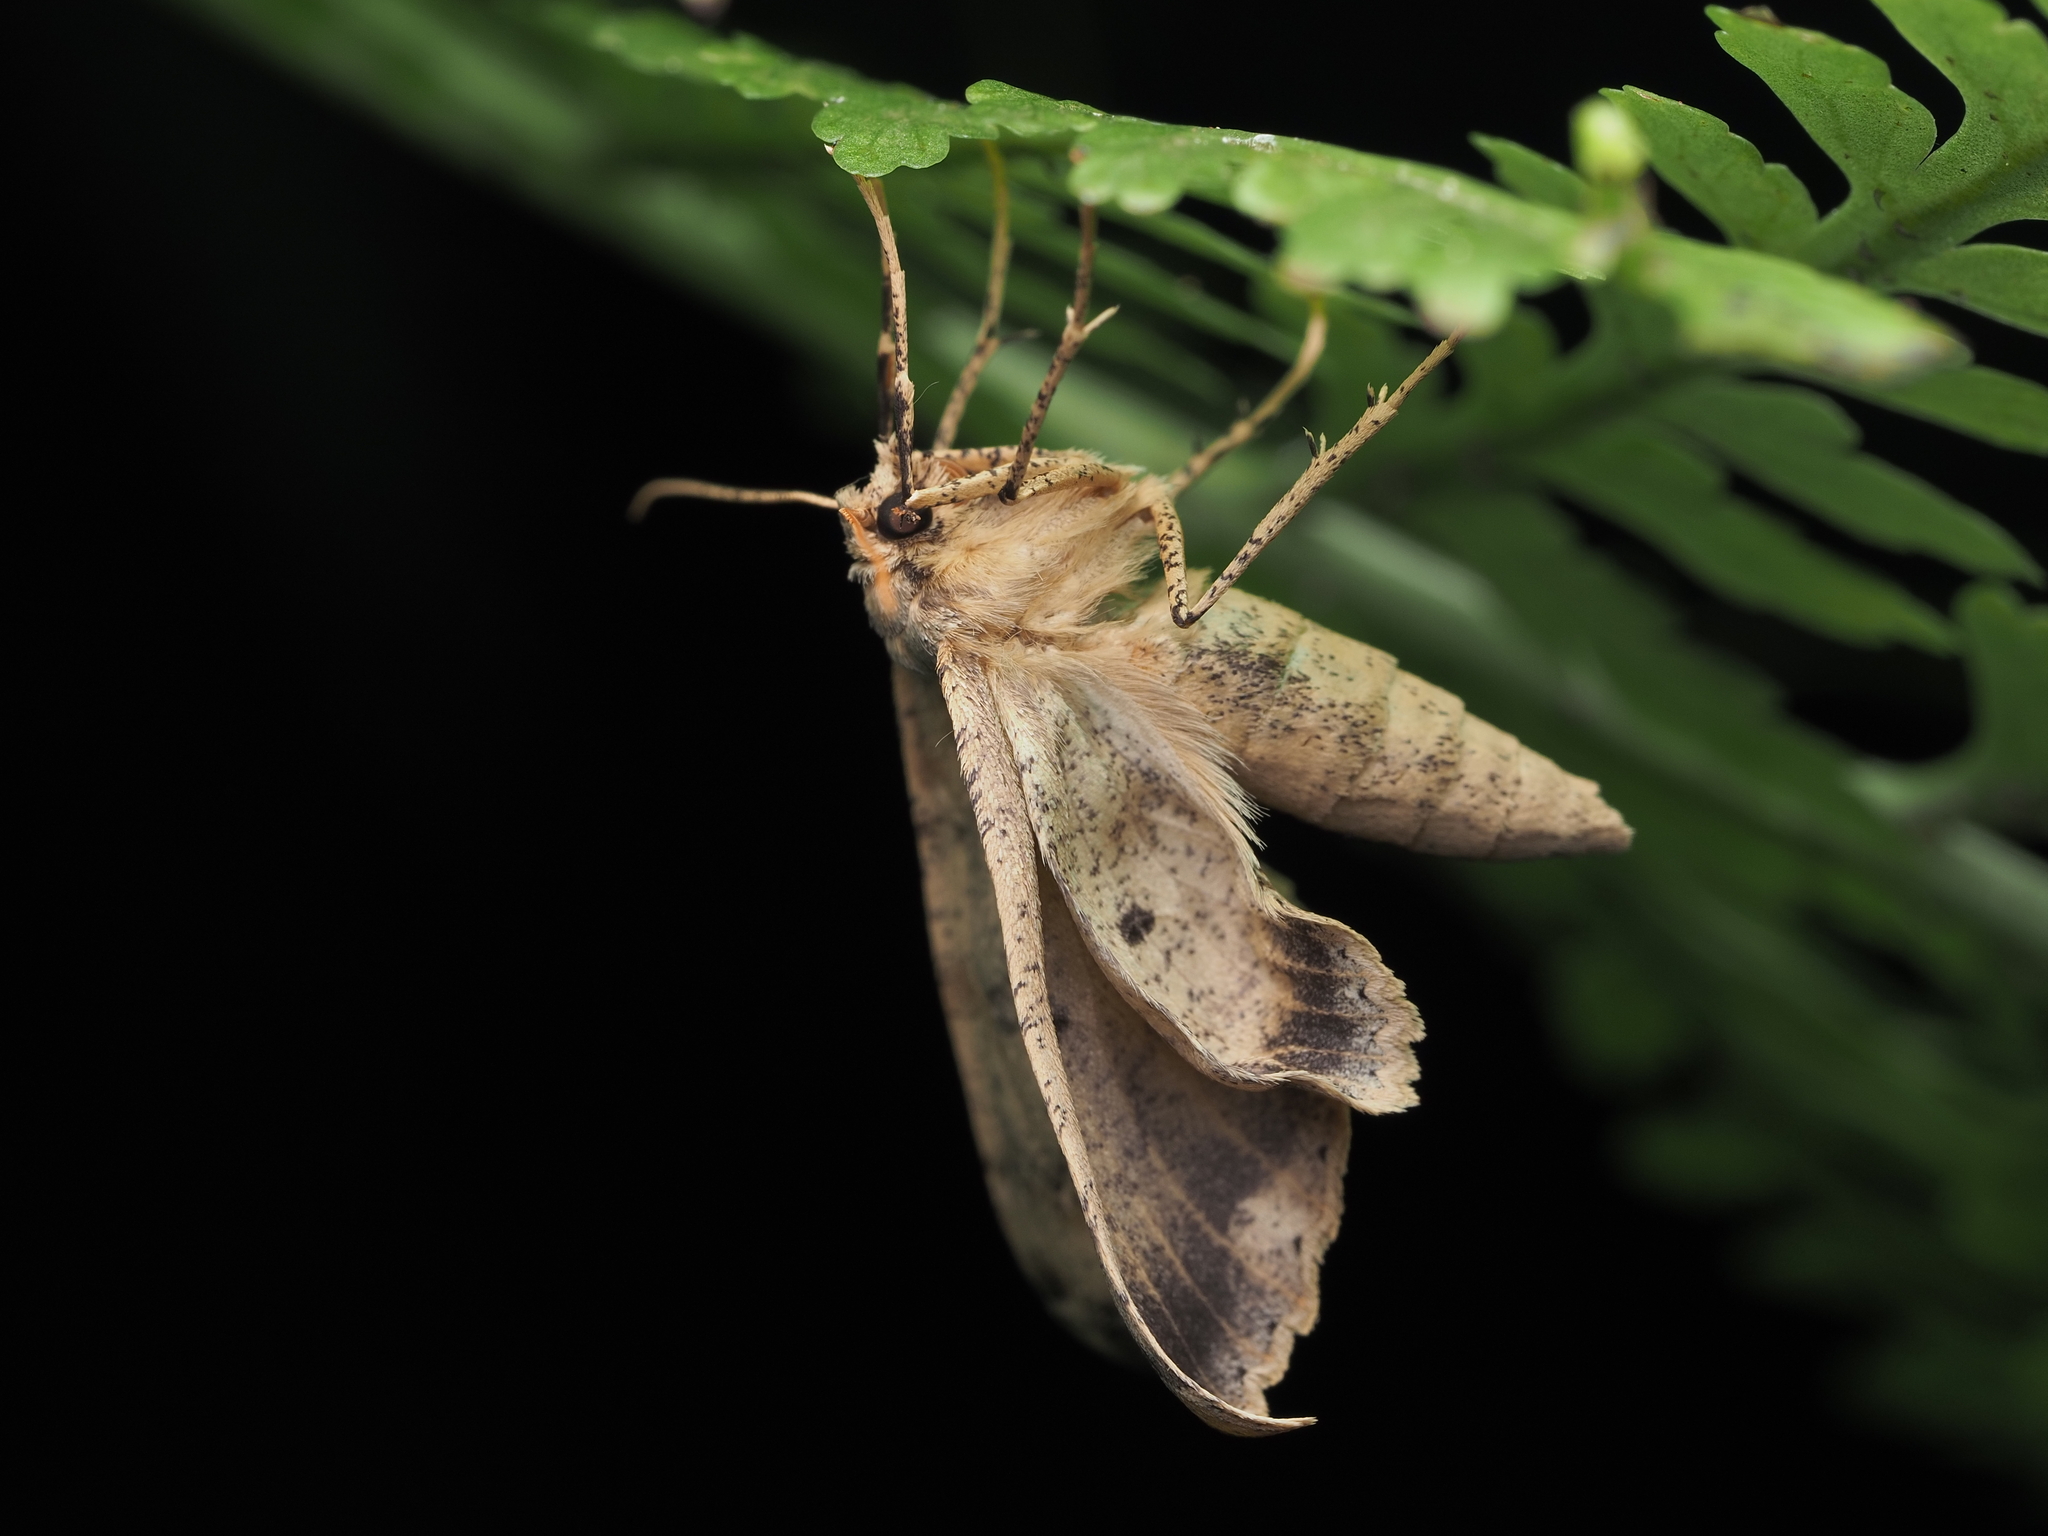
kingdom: Animalia
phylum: Arthropoda
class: Insecta
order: Lepidoptera
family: Geometridae
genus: Cleora
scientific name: Cleora scriptaria
